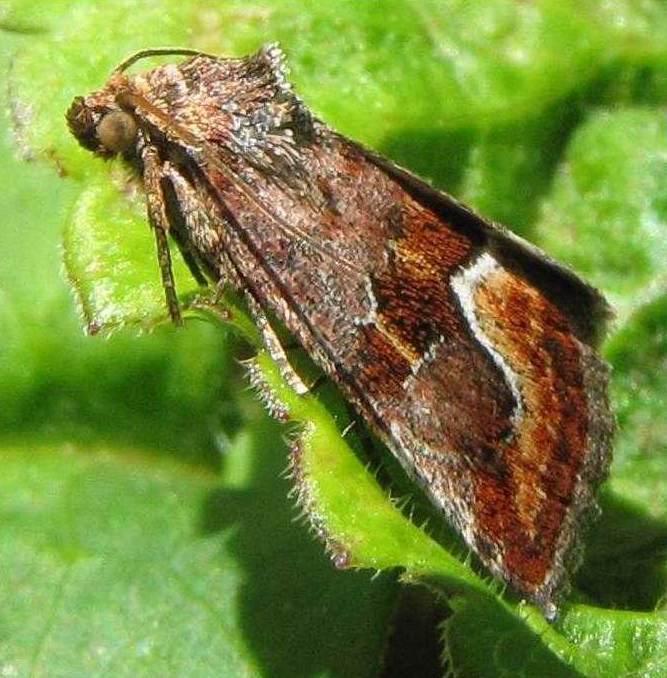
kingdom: Animalia
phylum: Arthropoda
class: Insecta
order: Lepidoptera
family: Noctuidae
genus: Deltote
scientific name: Deltote bellicula
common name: Bog glyph
